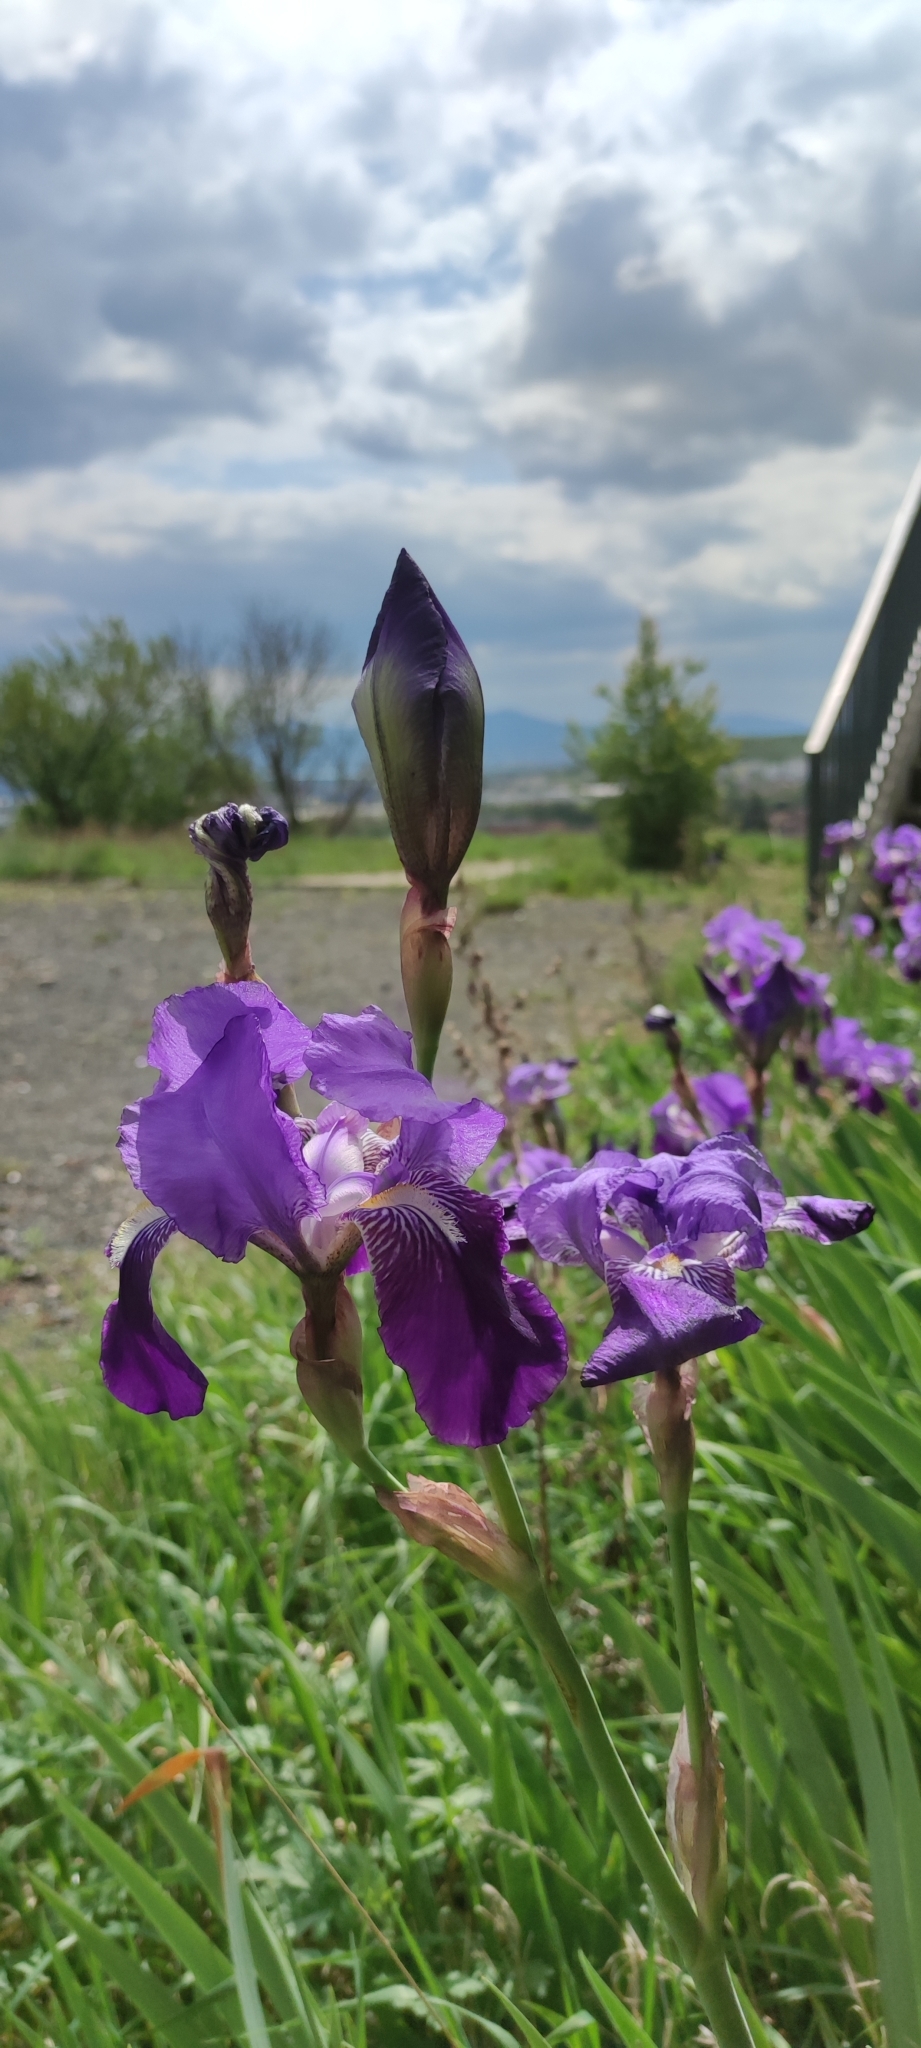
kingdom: Plantae
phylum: Tracheophyta
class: Liliopsida
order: Asparagales
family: Iridaceae
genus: Iris
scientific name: Iris germanica
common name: German iris
